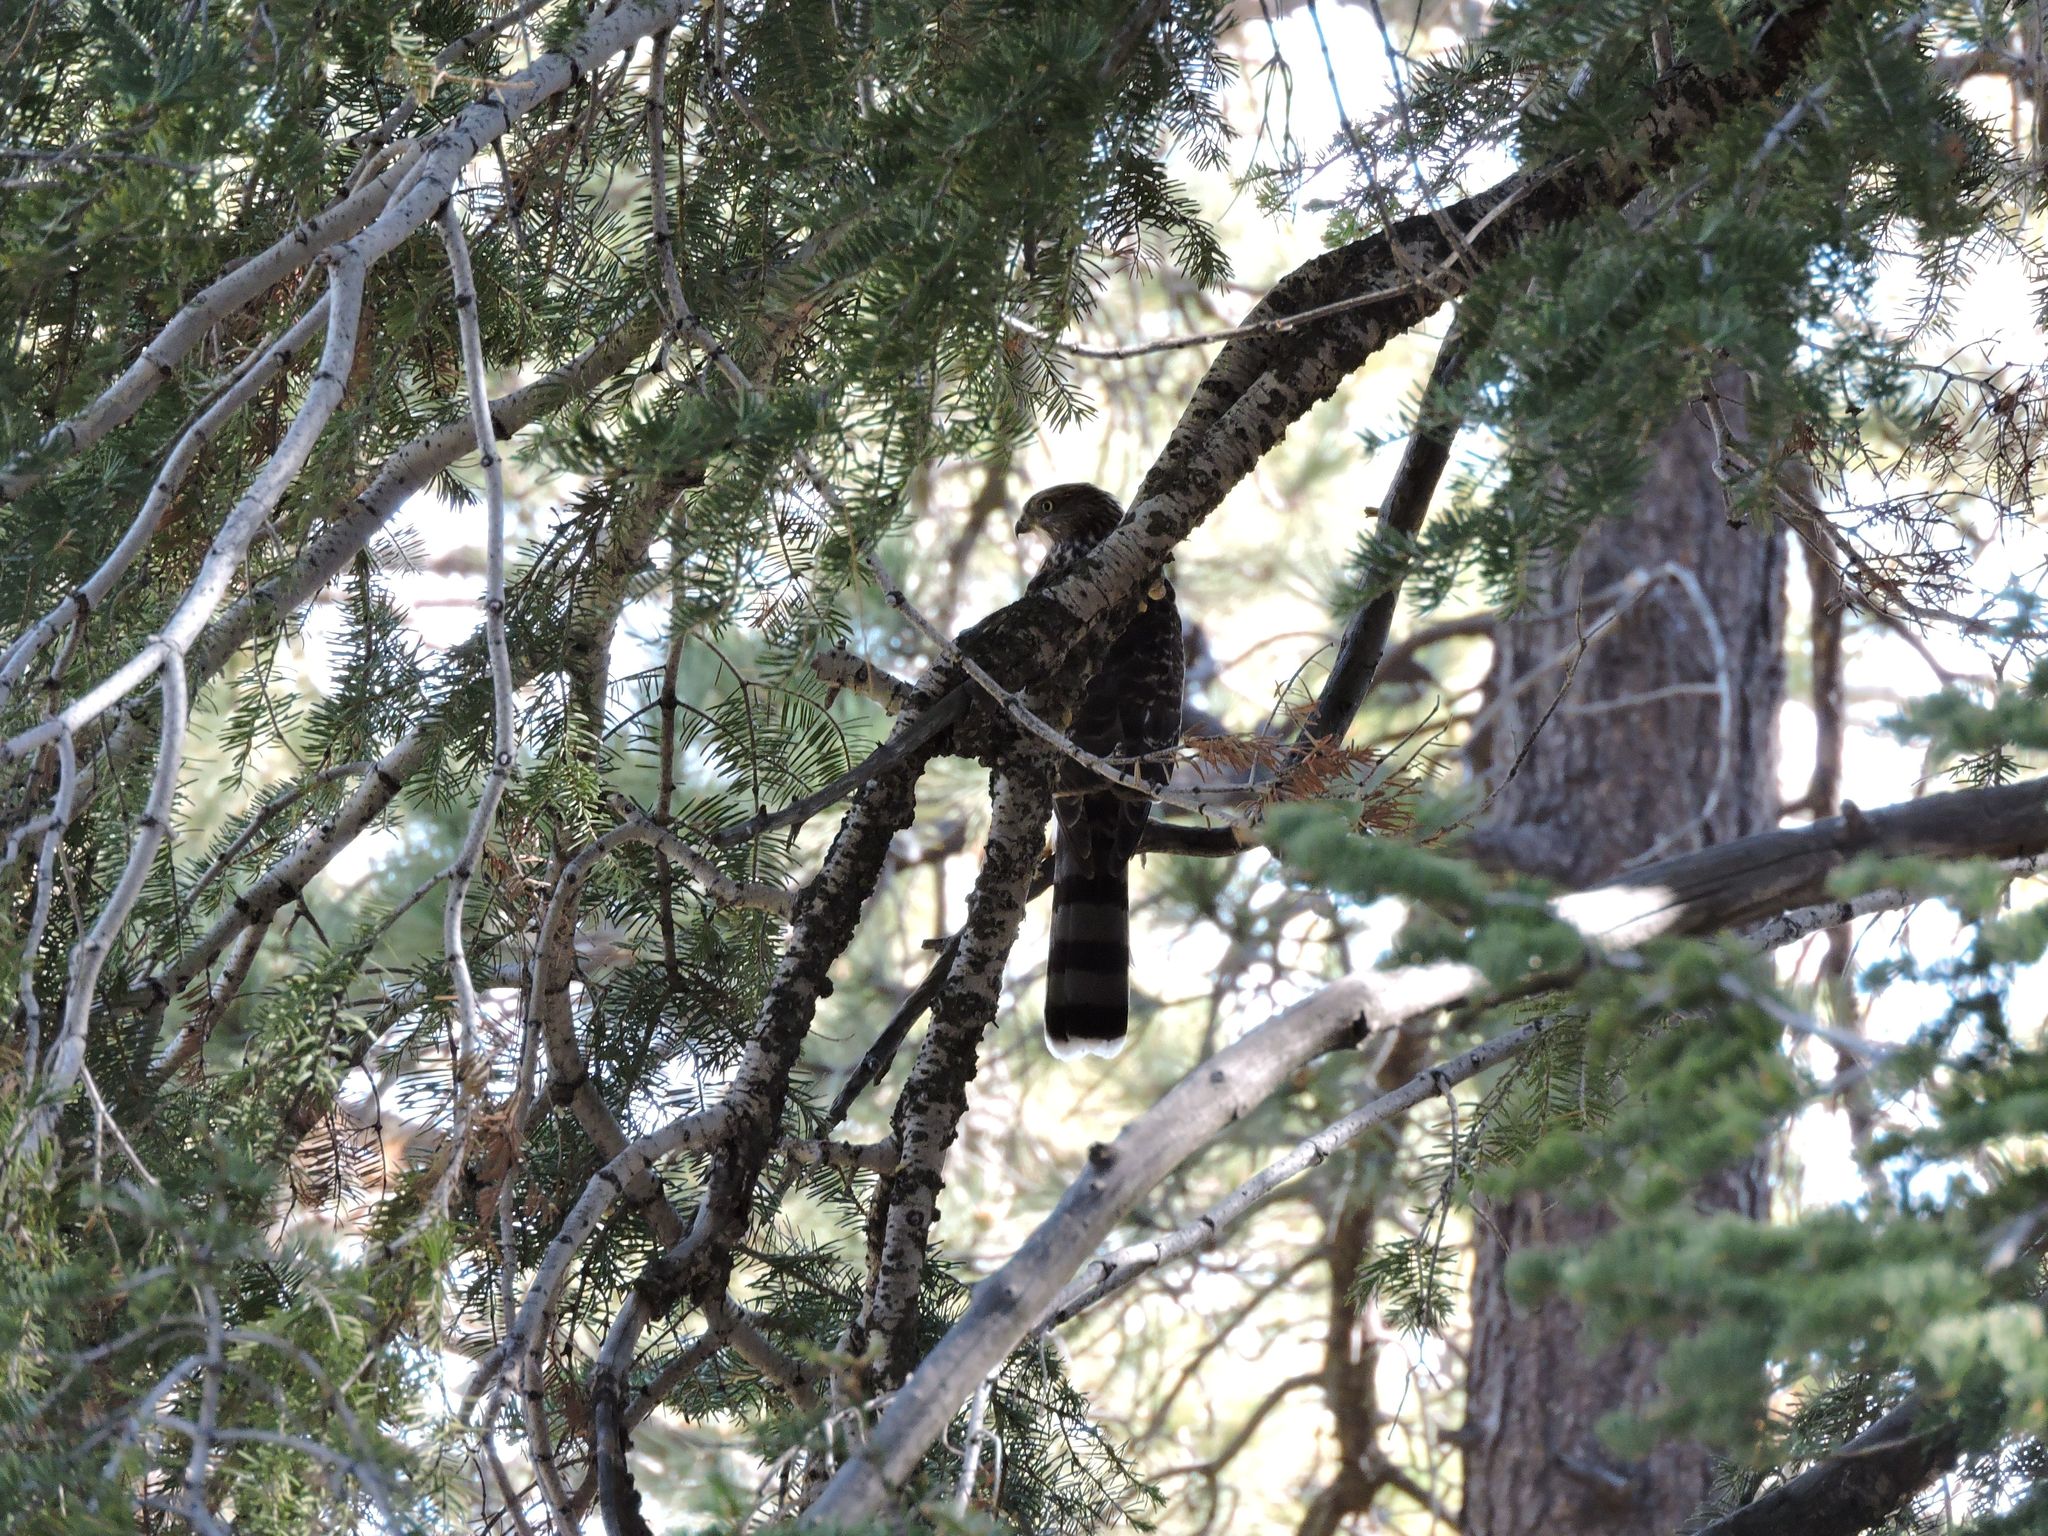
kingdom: Animalia
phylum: Chordata
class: Aves
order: Accipitriformes
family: Accipitridae
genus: Accipiter
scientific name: Accipiter cooperii
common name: Cooper's hawk
